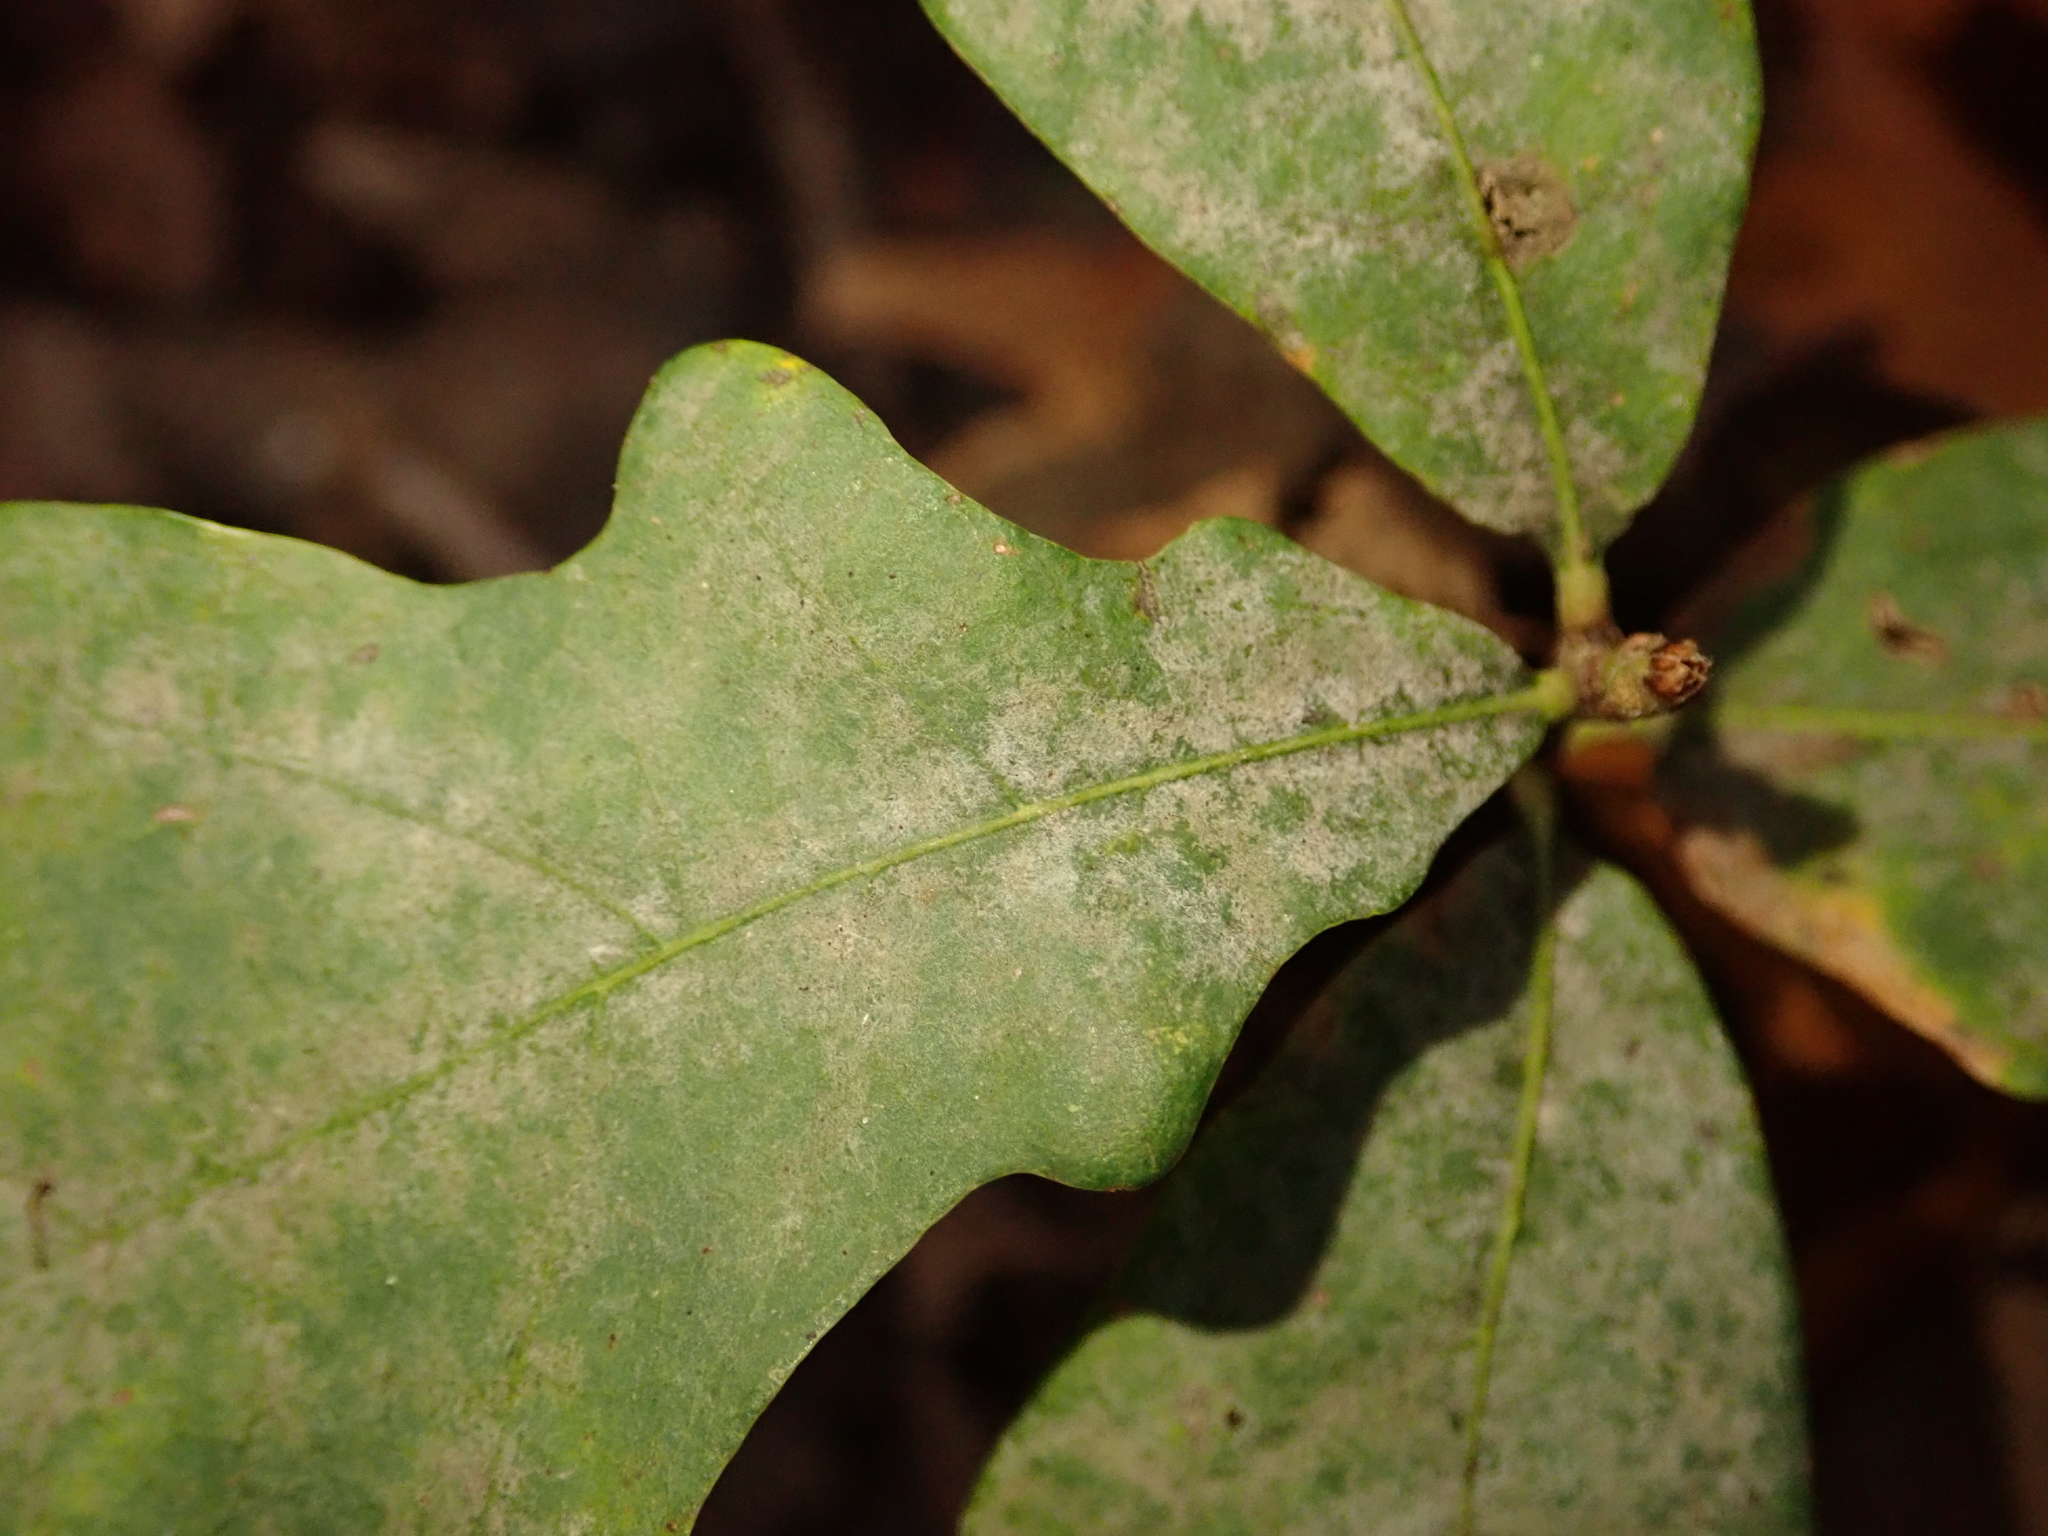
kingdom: Fungi
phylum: Ascomycota
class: Leotiomycetes
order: Helotiales
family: Erysiphaceae
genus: Erysiphe
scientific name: Erysiphe
